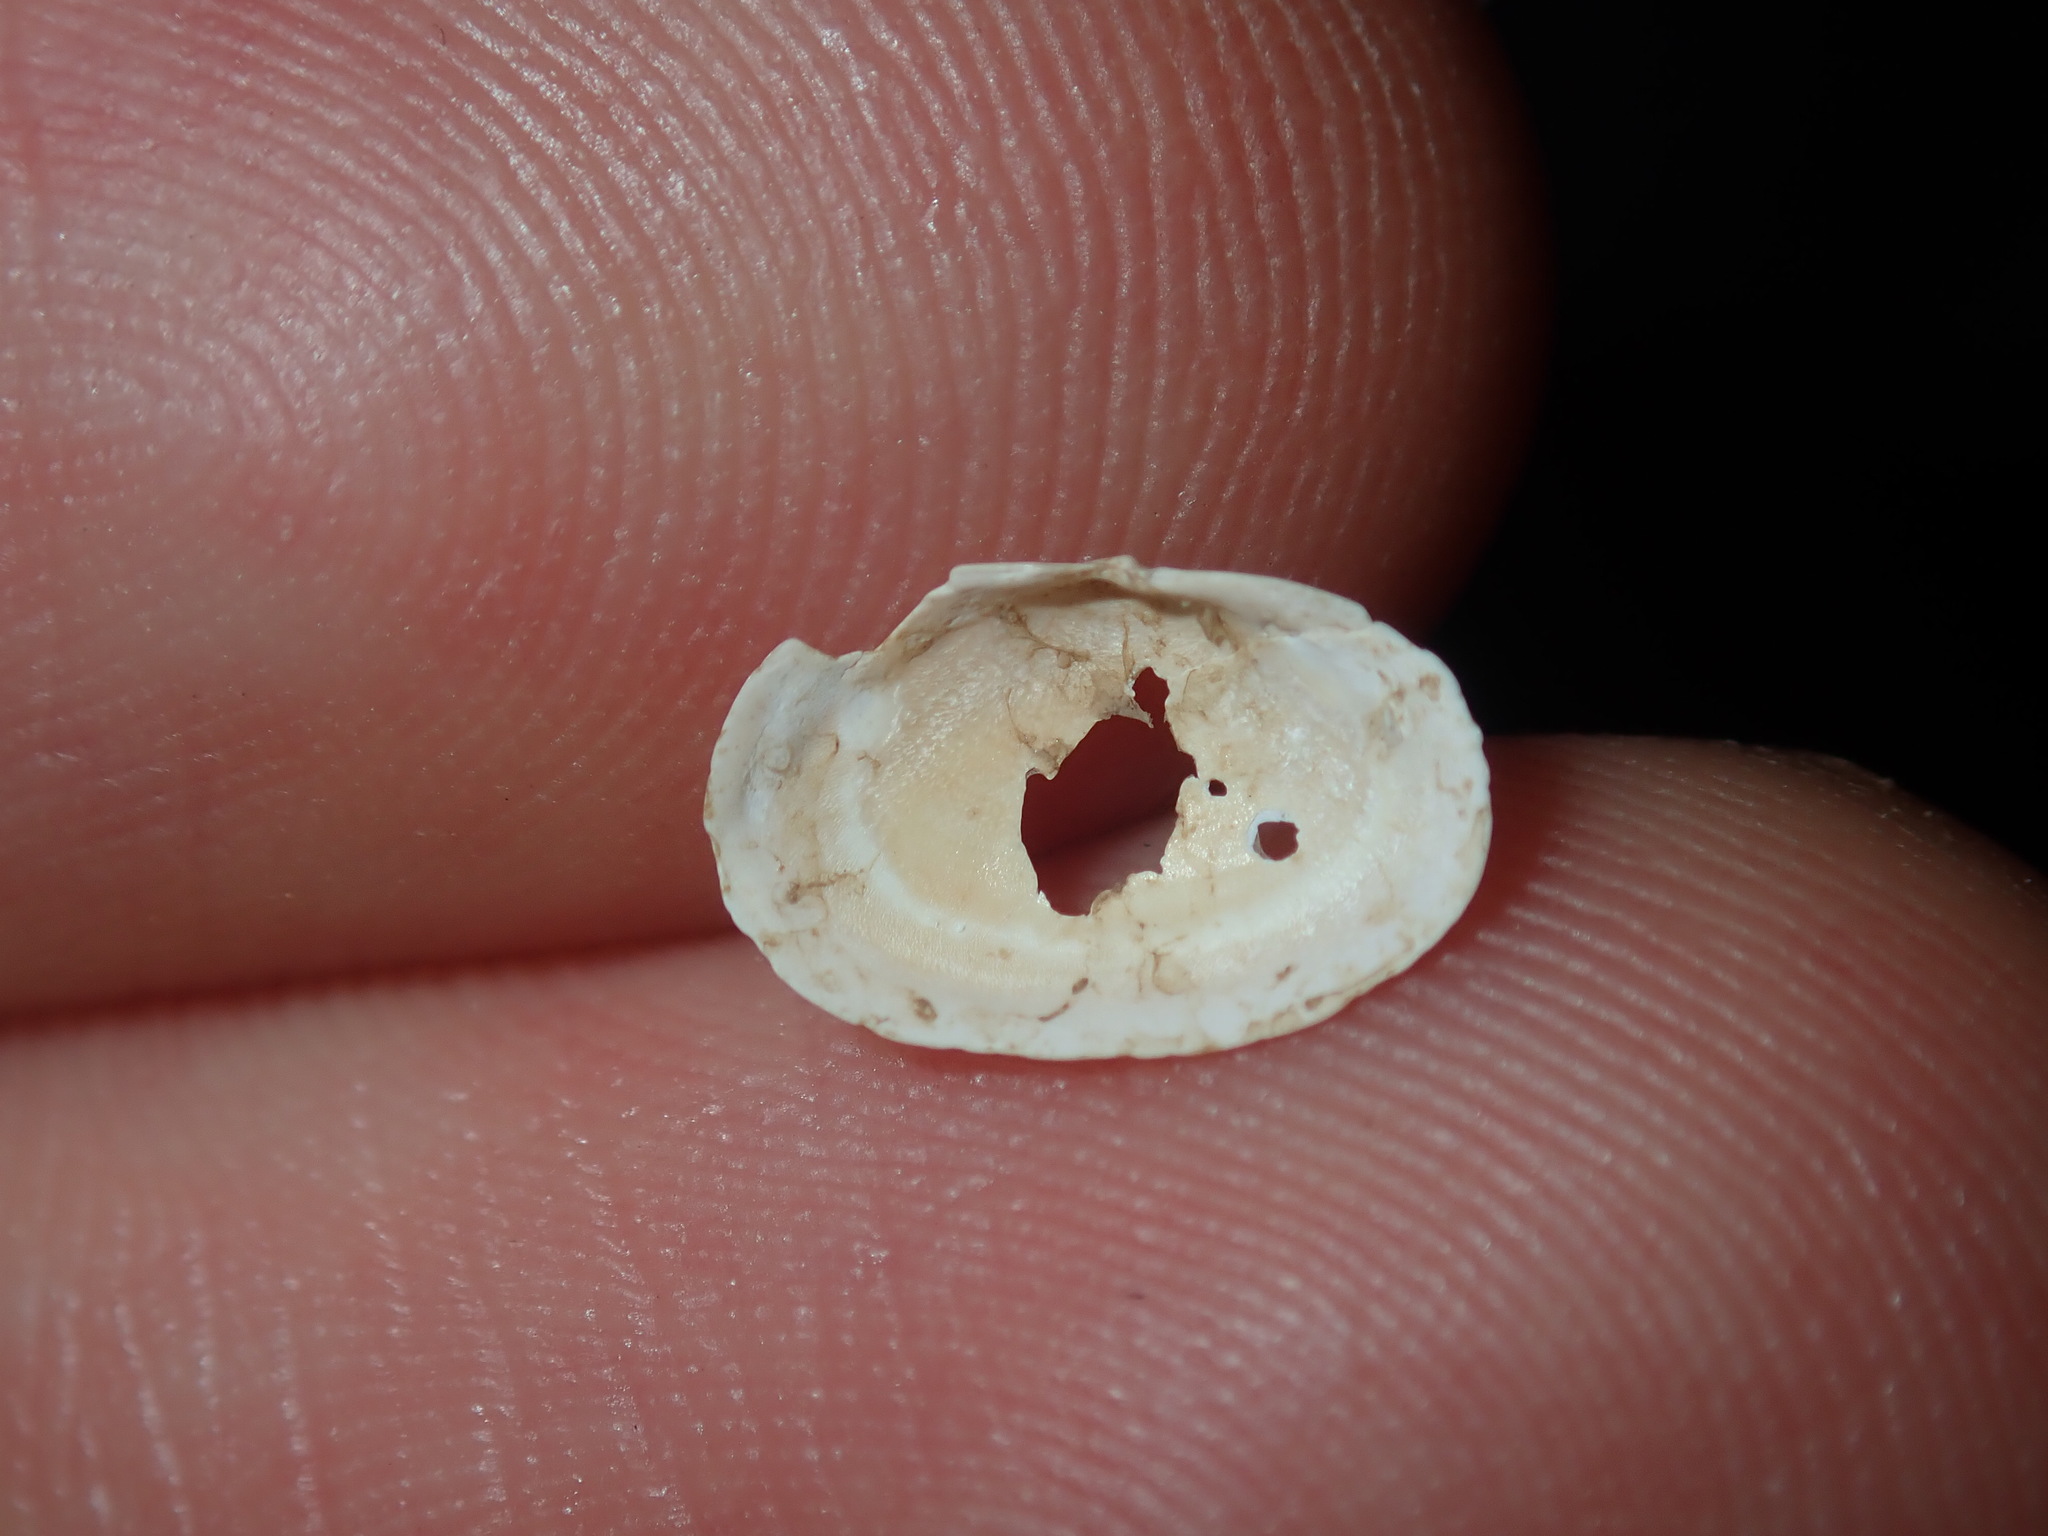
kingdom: Animalia
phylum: Mollusca
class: Bivalvia
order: Venerida
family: Glauconomidae
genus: Glauconome
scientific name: Glauconome radiata
